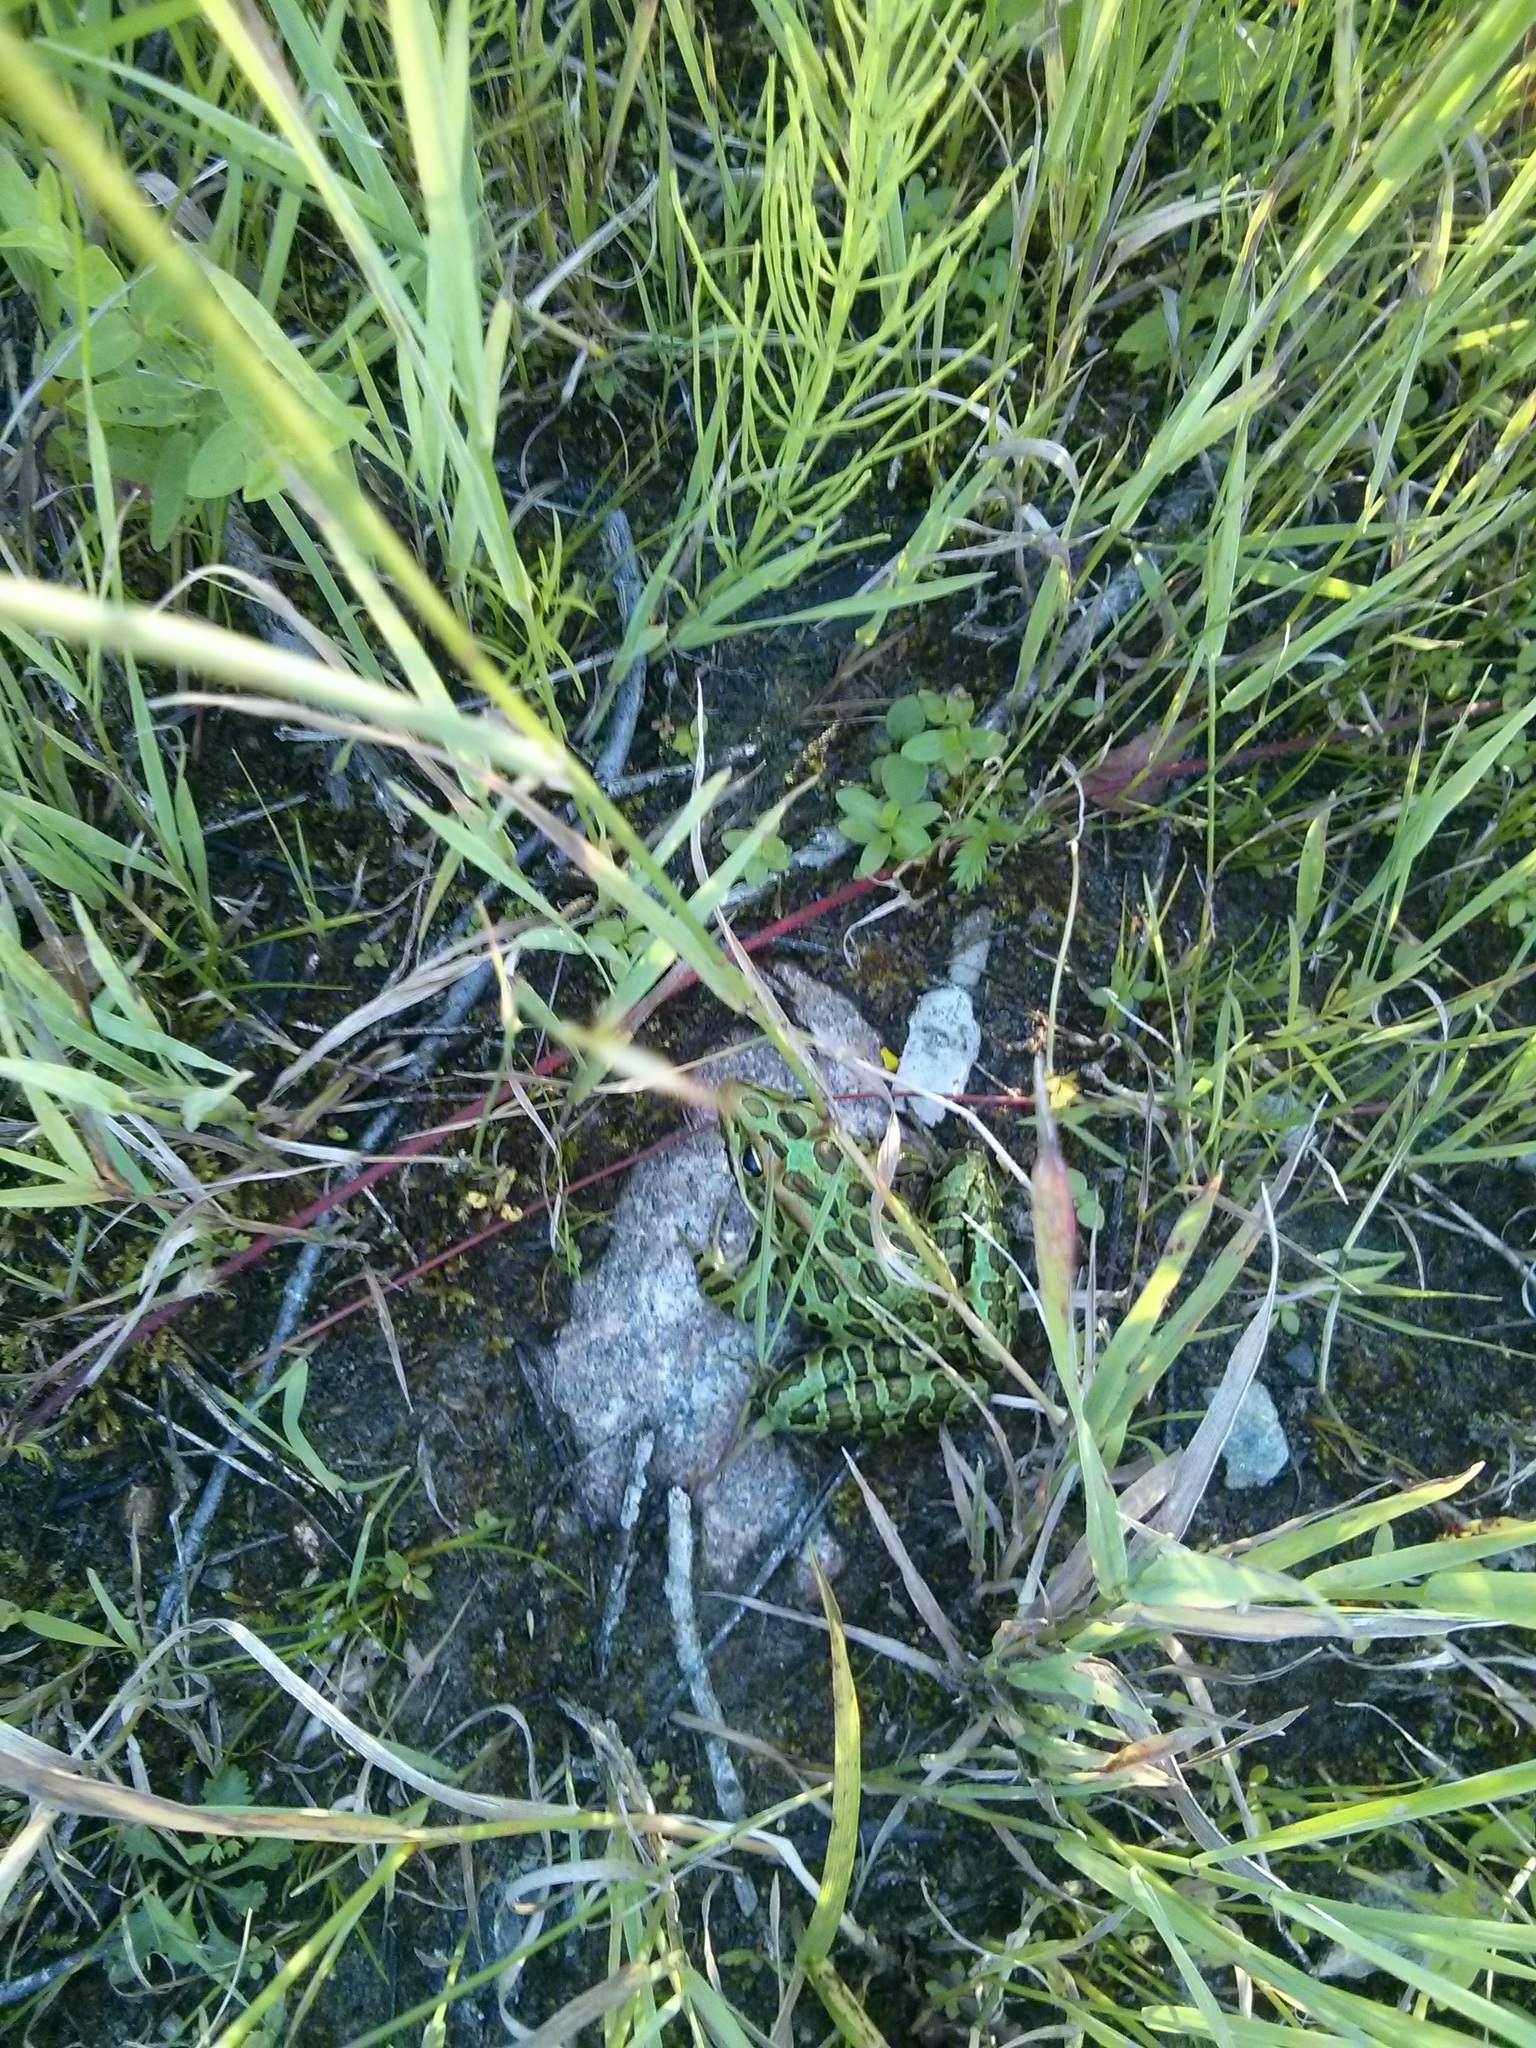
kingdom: Animalia
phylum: Chordata
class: Amphibia
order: Anura
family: Ranidae
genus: Lithobates
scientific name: Lithobates pipiens
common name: Northern leopard frog
